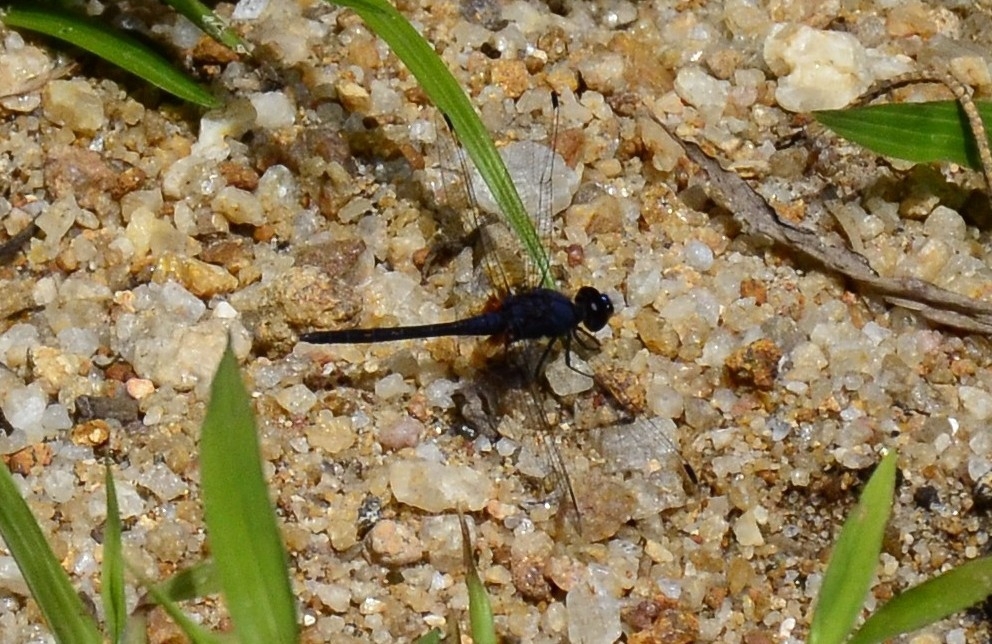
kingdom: Animalia
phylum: Arthropoda
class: Insecta
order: Odonata
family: Libellulidae
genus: Trithemis
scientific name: Trithemis festiva
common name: Indigo dropwing
